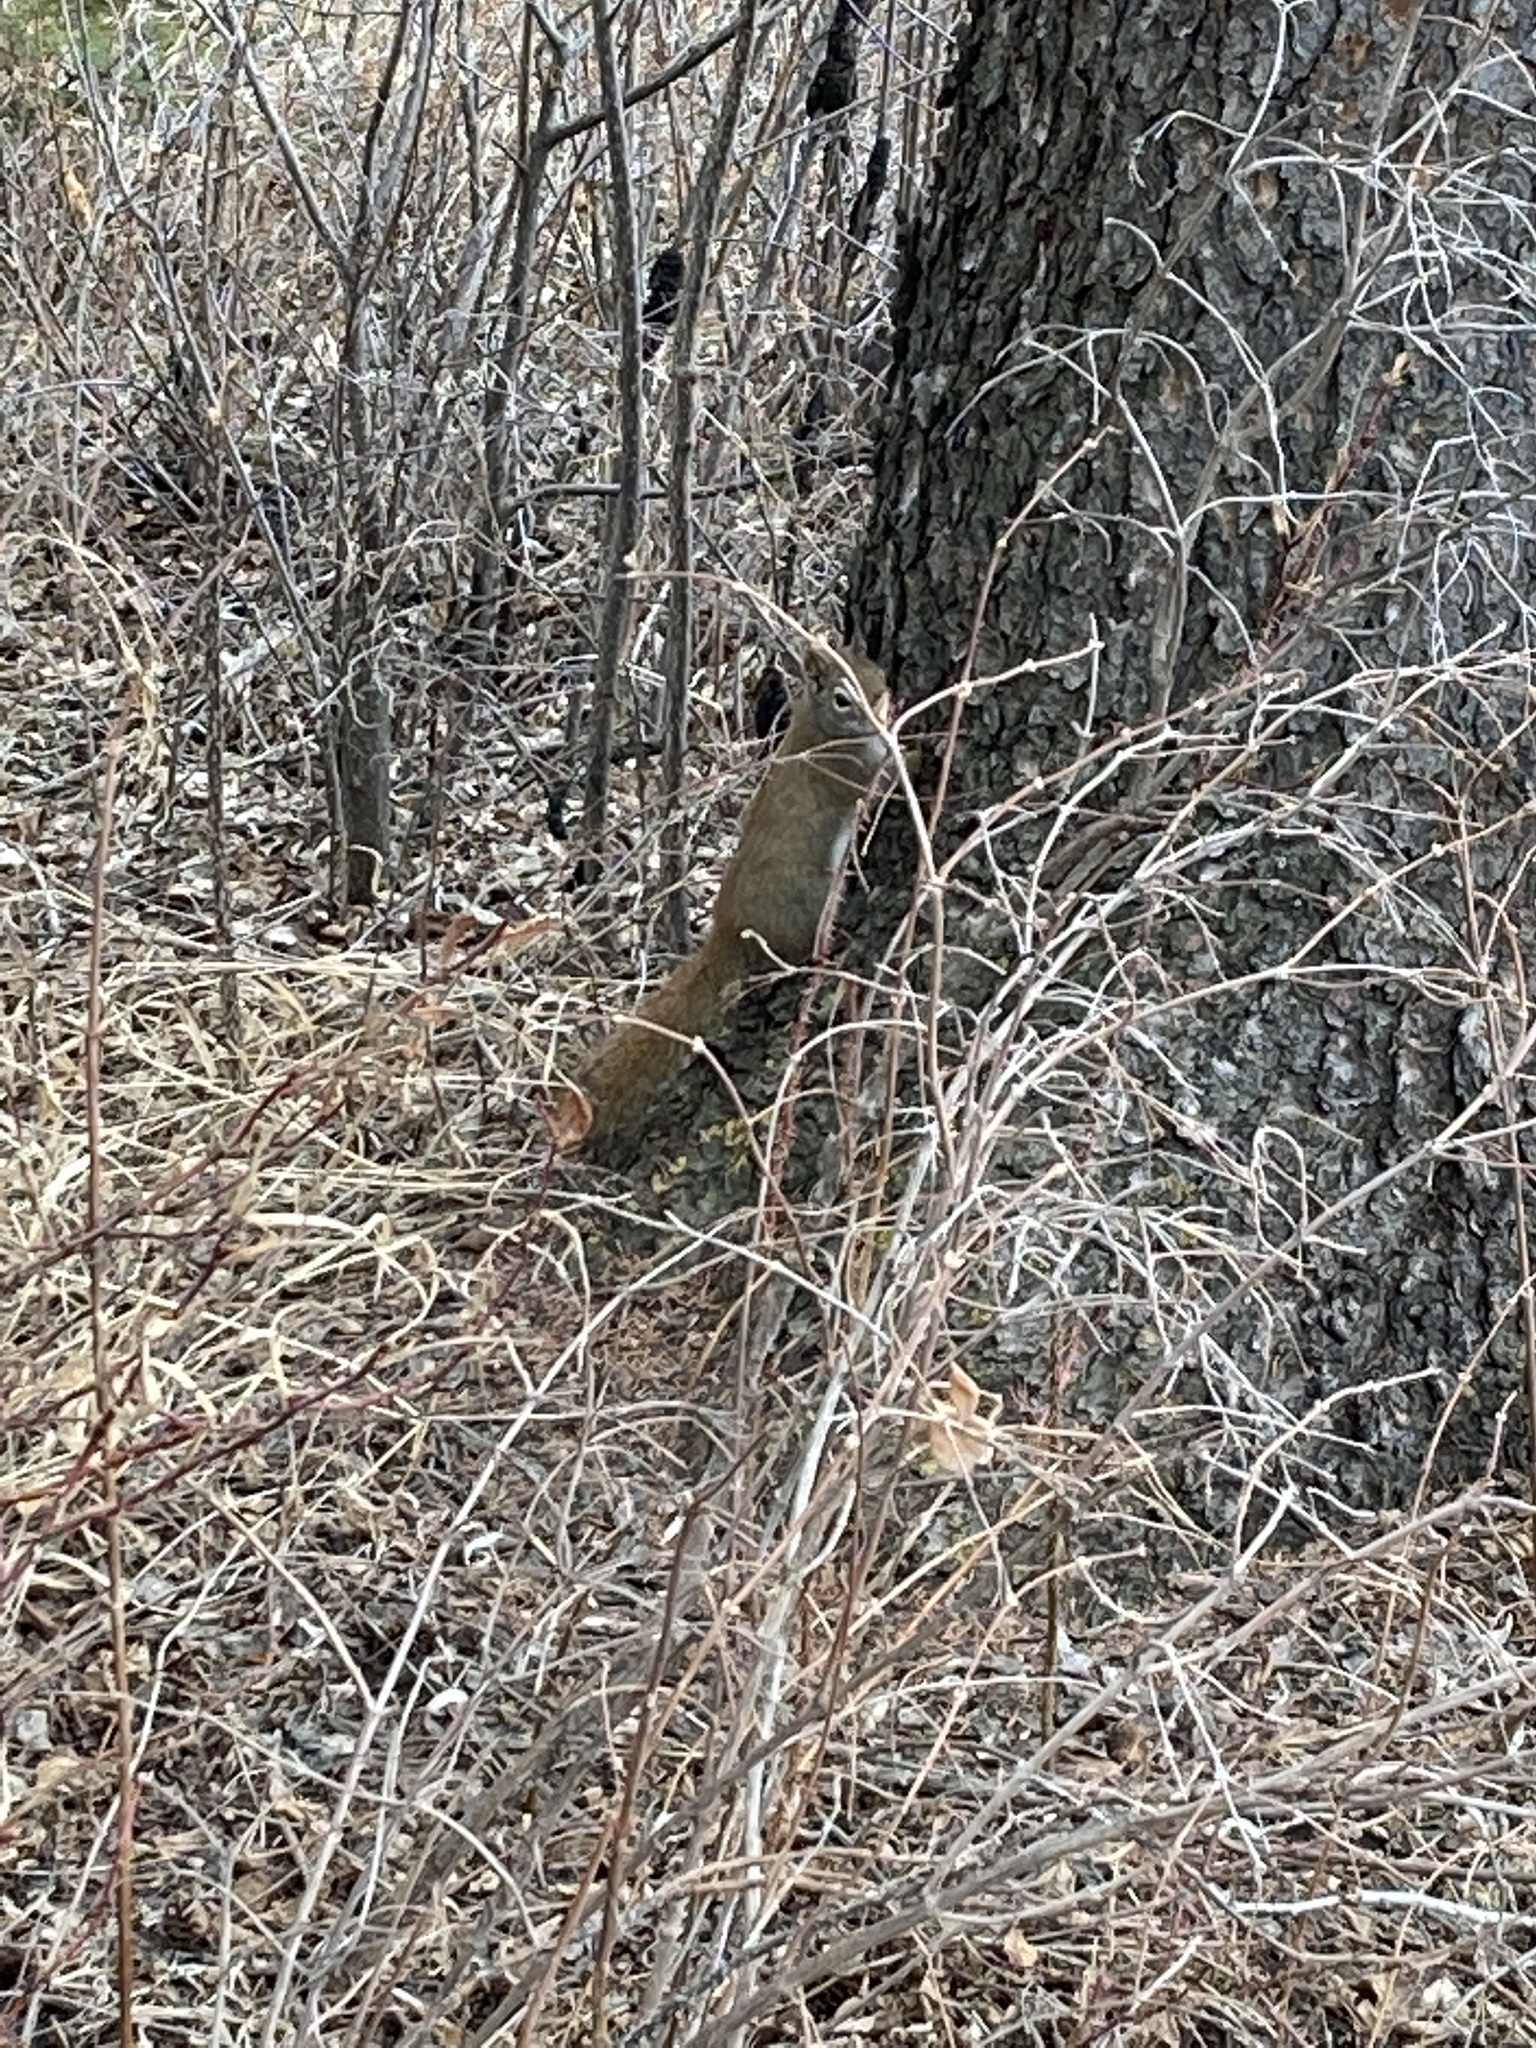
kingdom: Animalia
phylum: Chordata
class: Mammalia
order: Rodentia
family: Sciuridae
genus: Tamiasciurus
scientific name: Tamiasciurus hudsonicus
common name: Red squirrel
